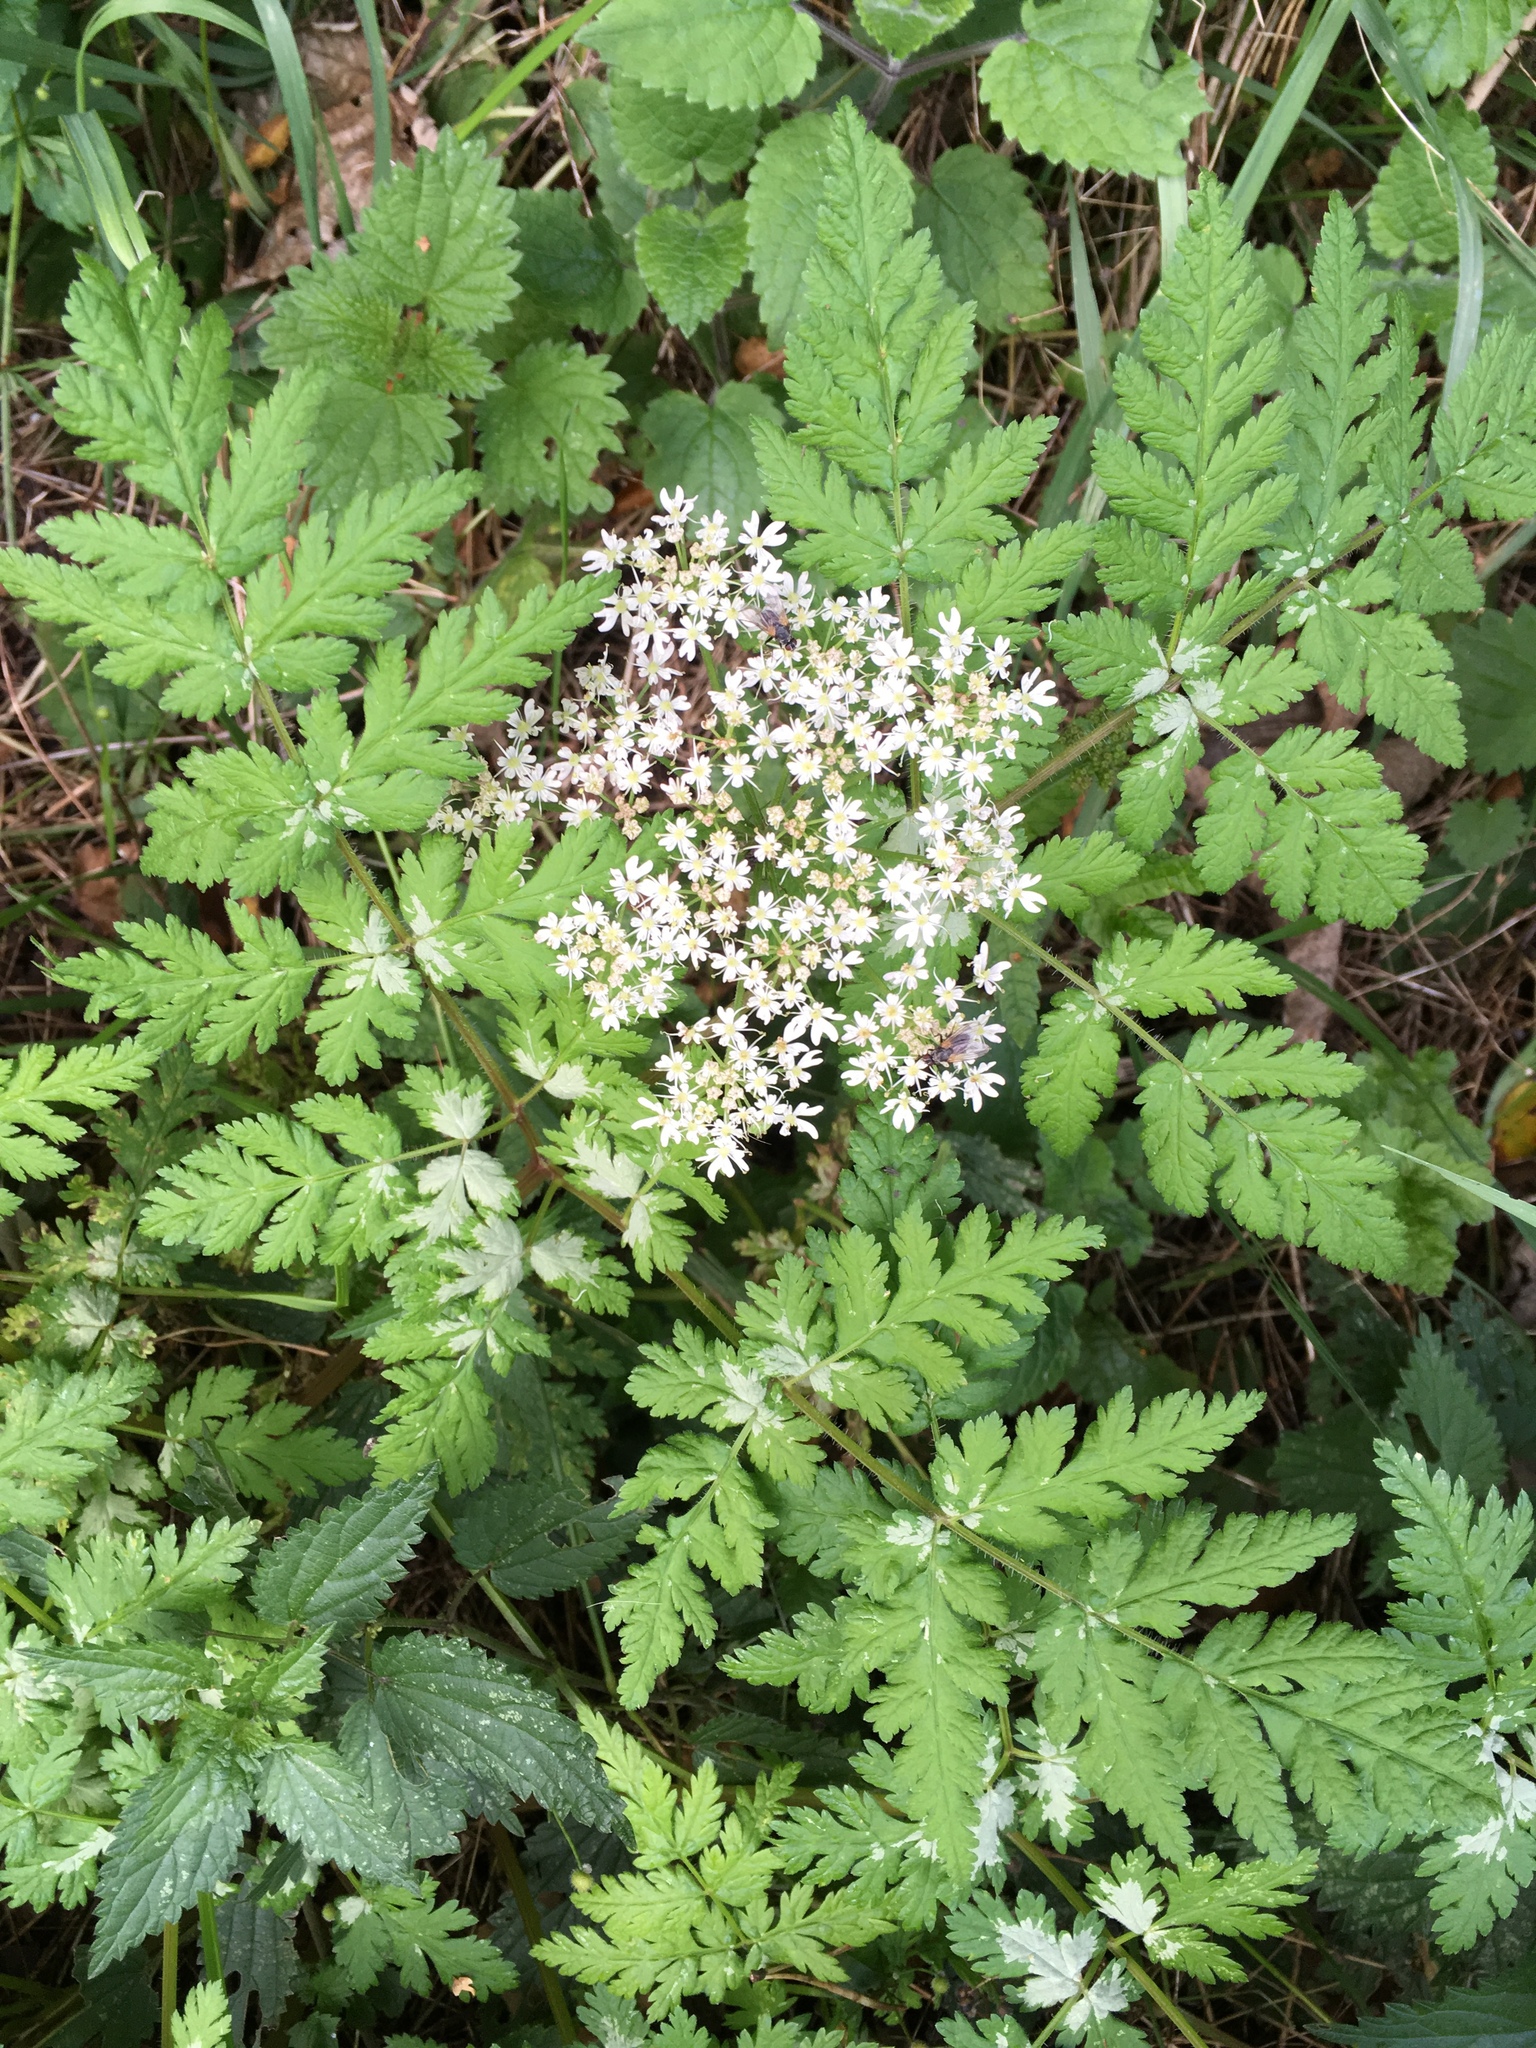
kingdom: Plantae
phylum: Tracheophyta
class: Magnoliopsida
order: Apiales
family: Apiaceae
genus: Myrrhis
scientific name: Myrrhis odorata
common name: Sweet cicely
